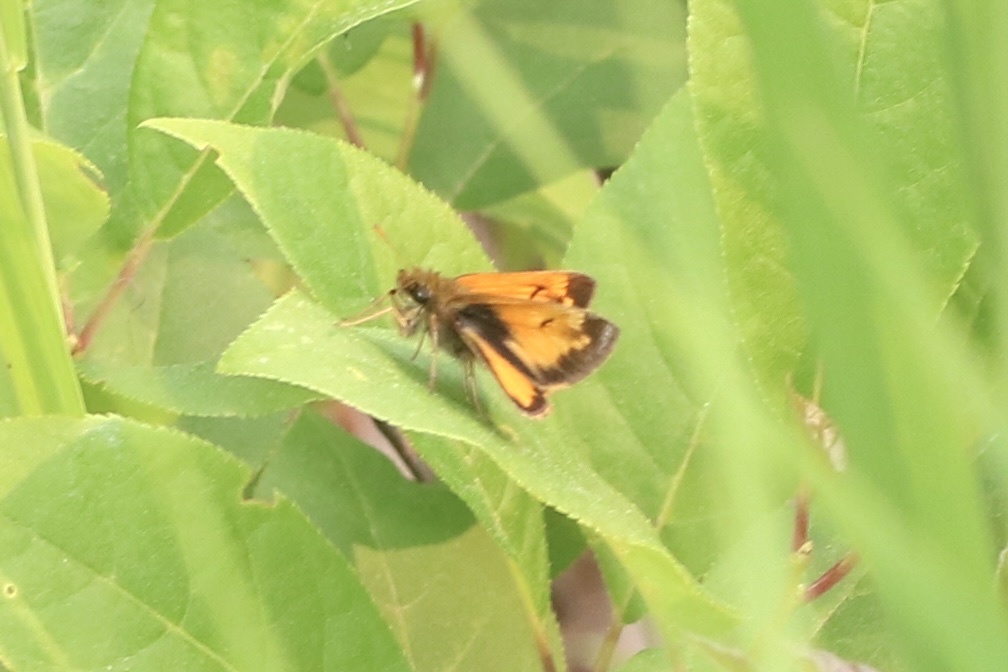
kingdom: Animalia
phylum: Arthropoda
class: Insecta
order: Lepidoptera
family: Hesperiidae
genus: Lon
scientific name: Lon hobomok
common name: Hobomok skipper
